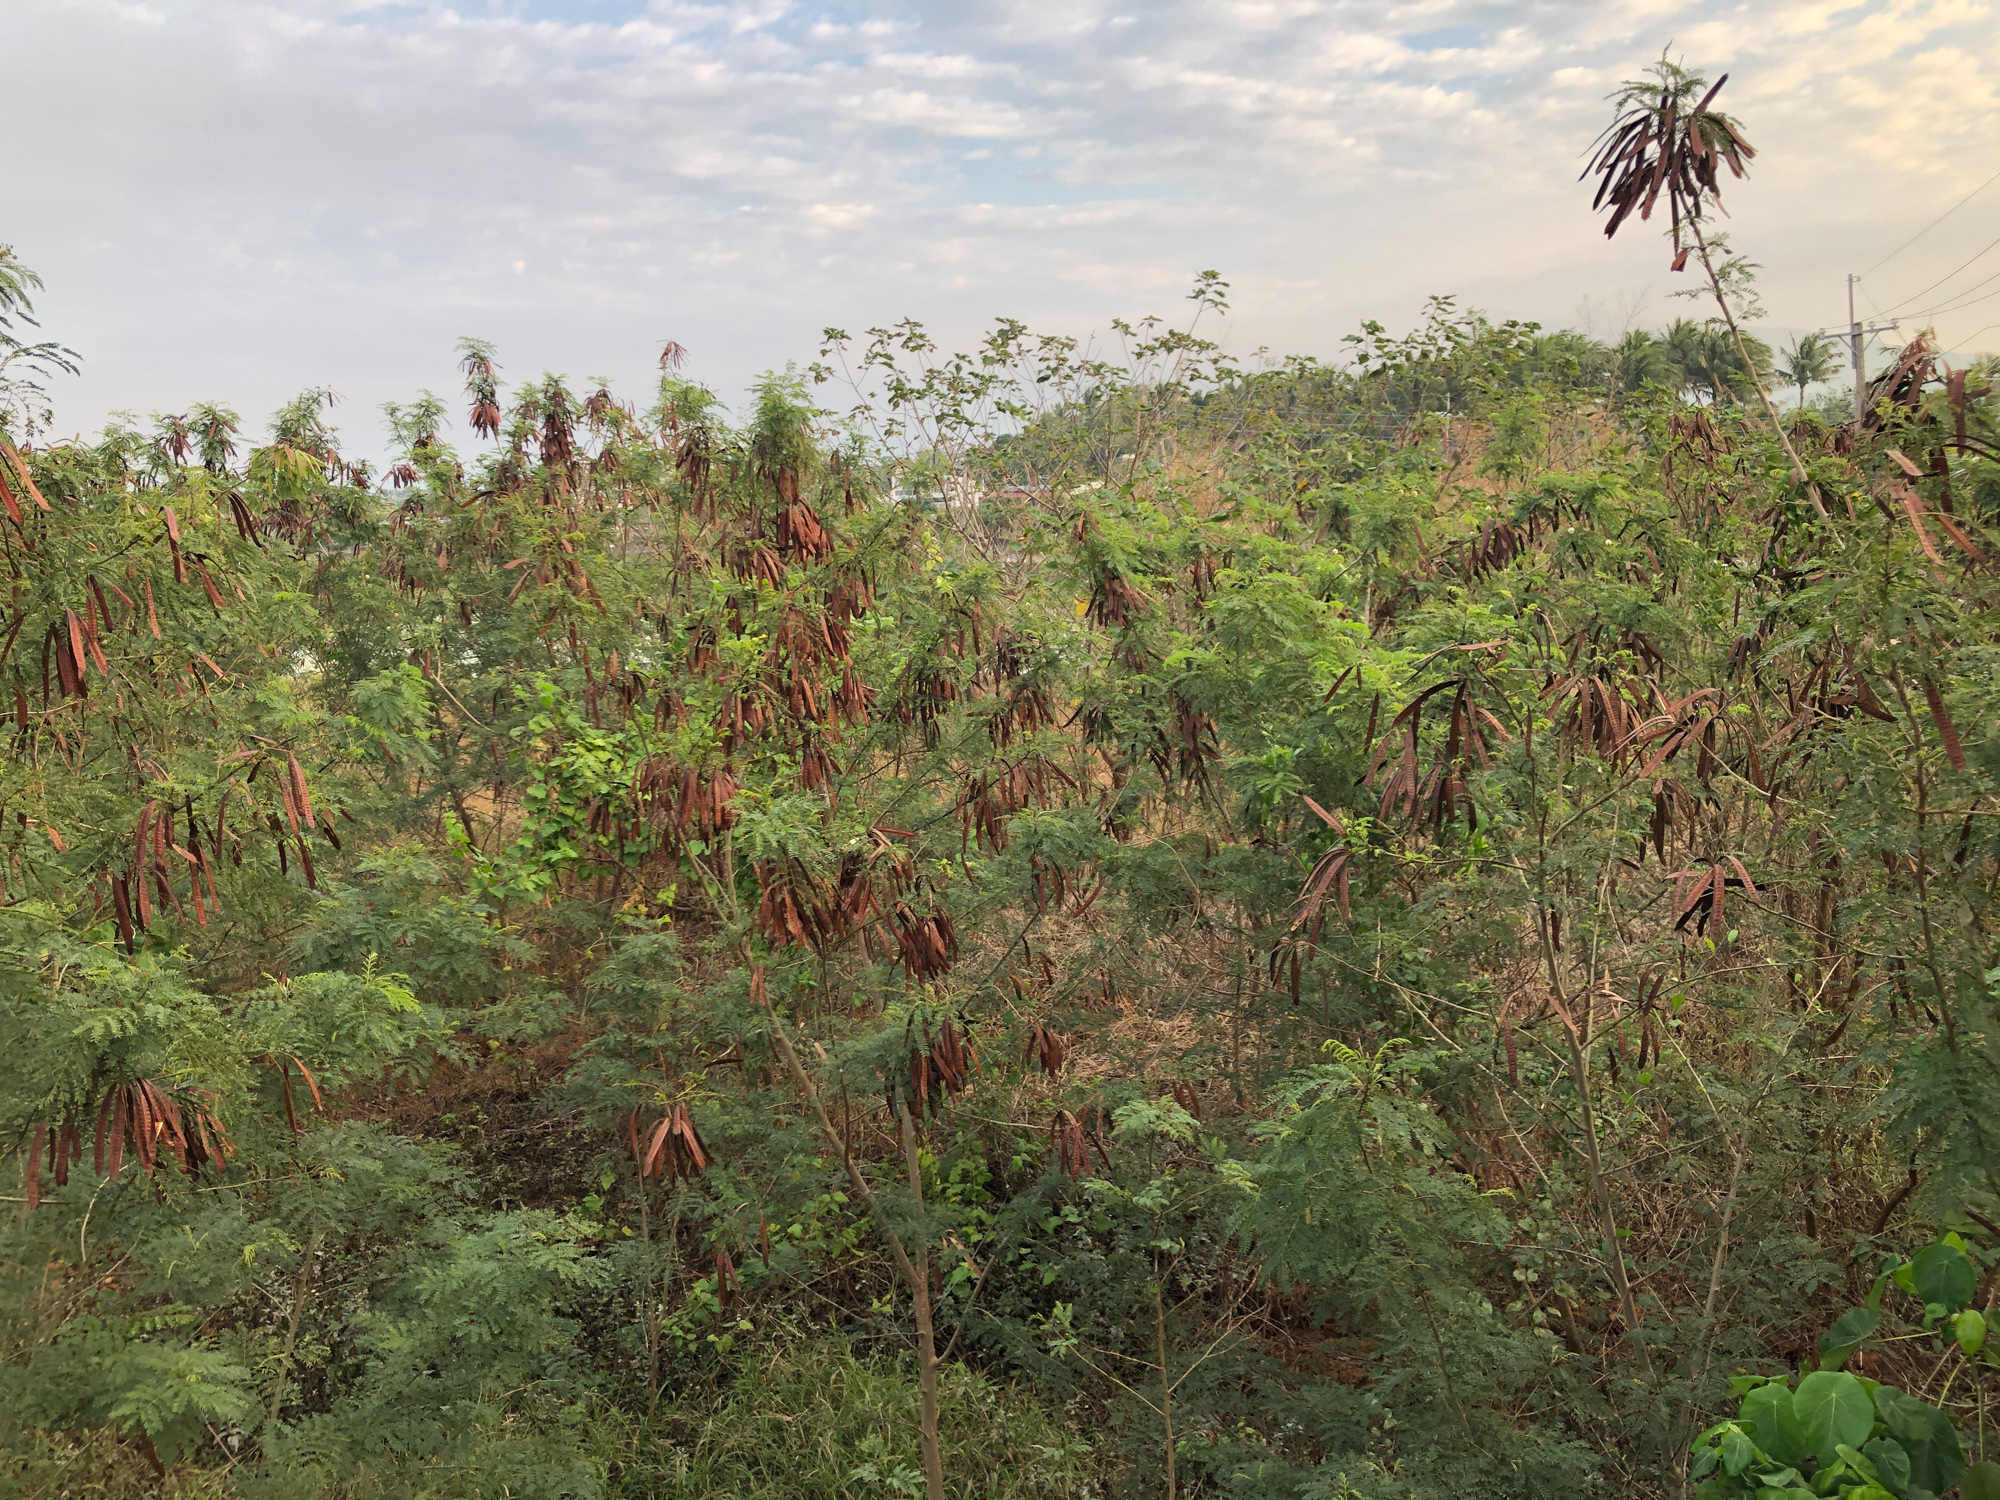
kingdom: Plantae
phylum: Tracheophyta
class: Magnoliopsida
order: Fabales
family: Fabaceae
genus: Leucaena
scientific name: Leucaena leucocephala
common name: White leadtree
